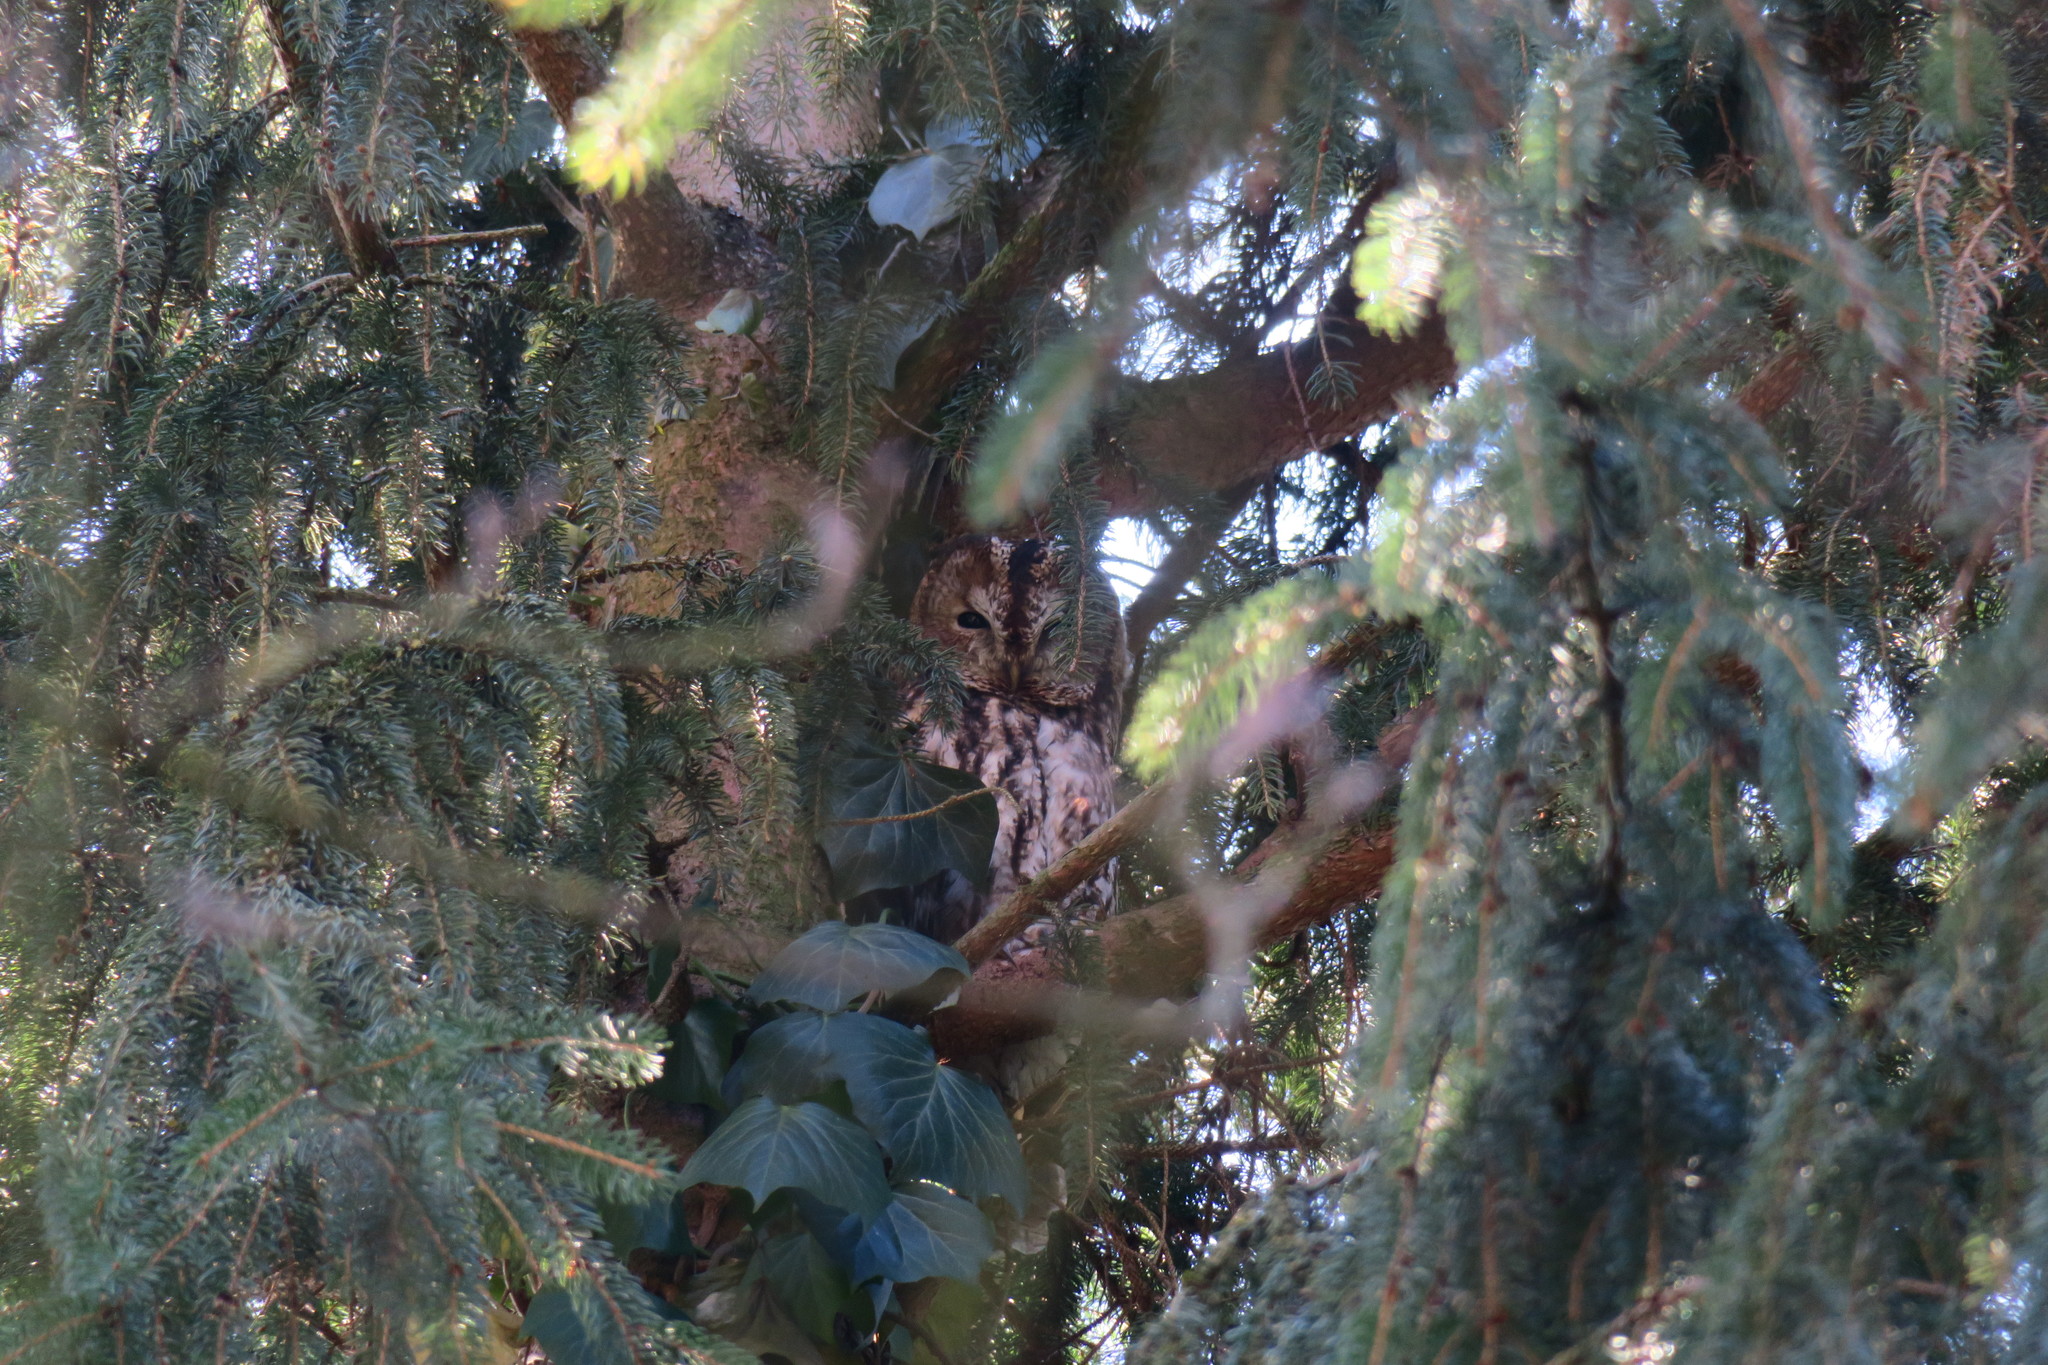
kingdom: Animalia
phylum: Chordata
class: Aves
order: Strigiformes
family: Strigidae
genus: Strix
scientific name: Strix aluco
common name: Tawny owl
